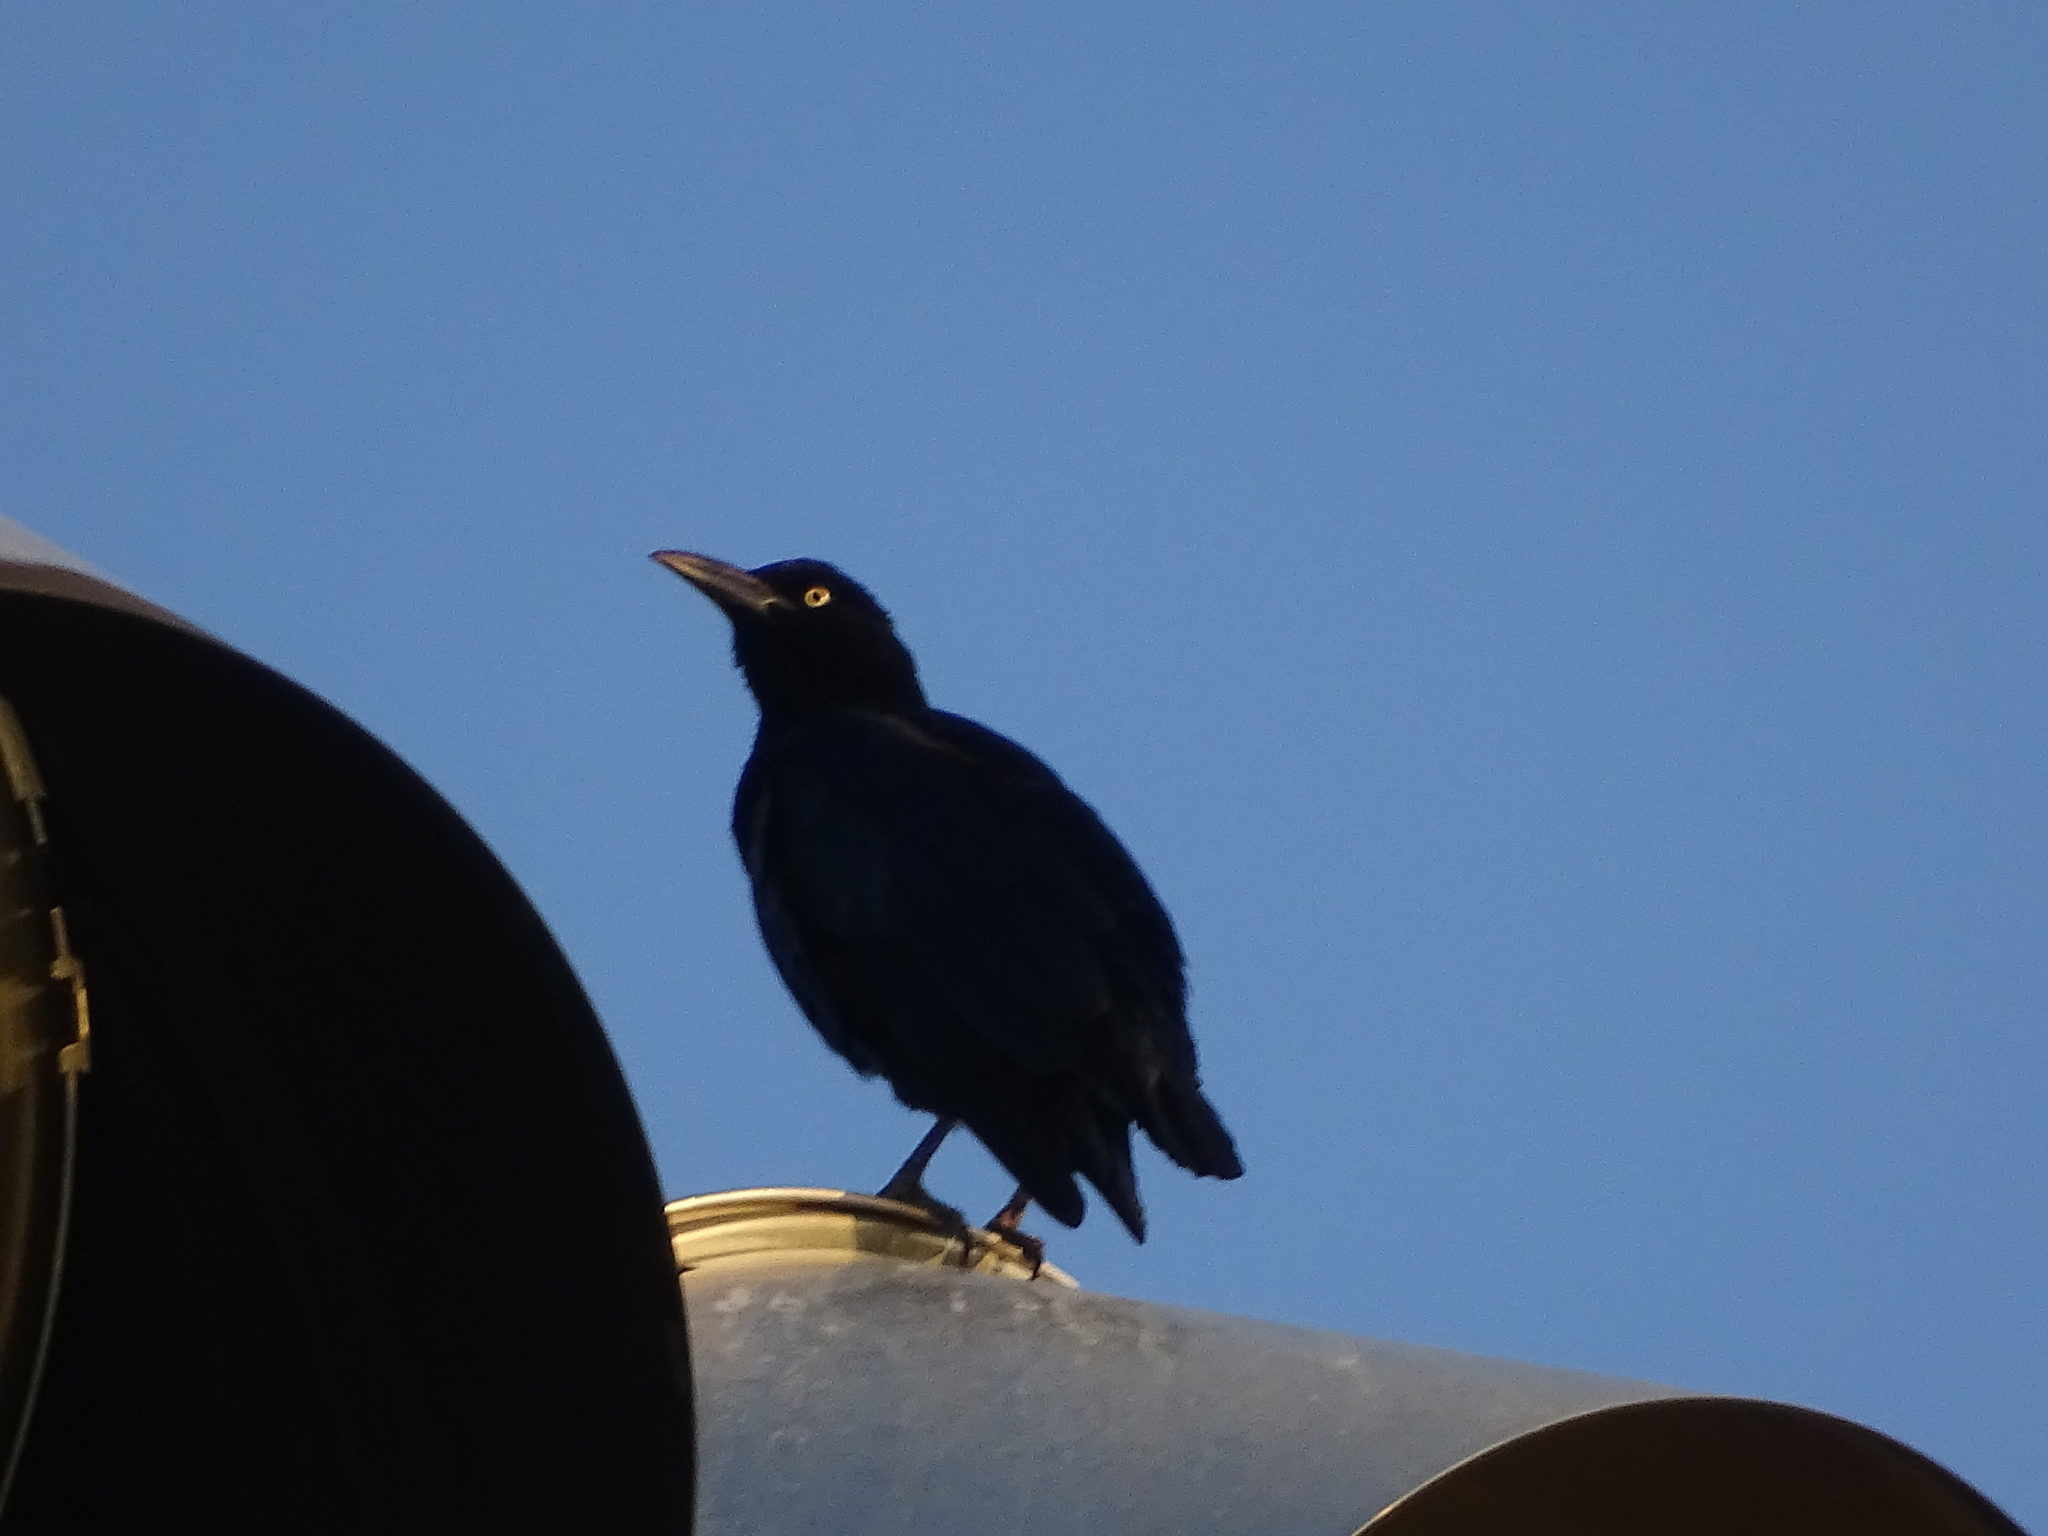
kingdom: Animalia
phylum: Chordata
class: Aves
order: Passeriformes
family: Icteridae
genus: Quiscalus
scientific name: Quiscalus mexicanus
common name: Great-tailed grackle
